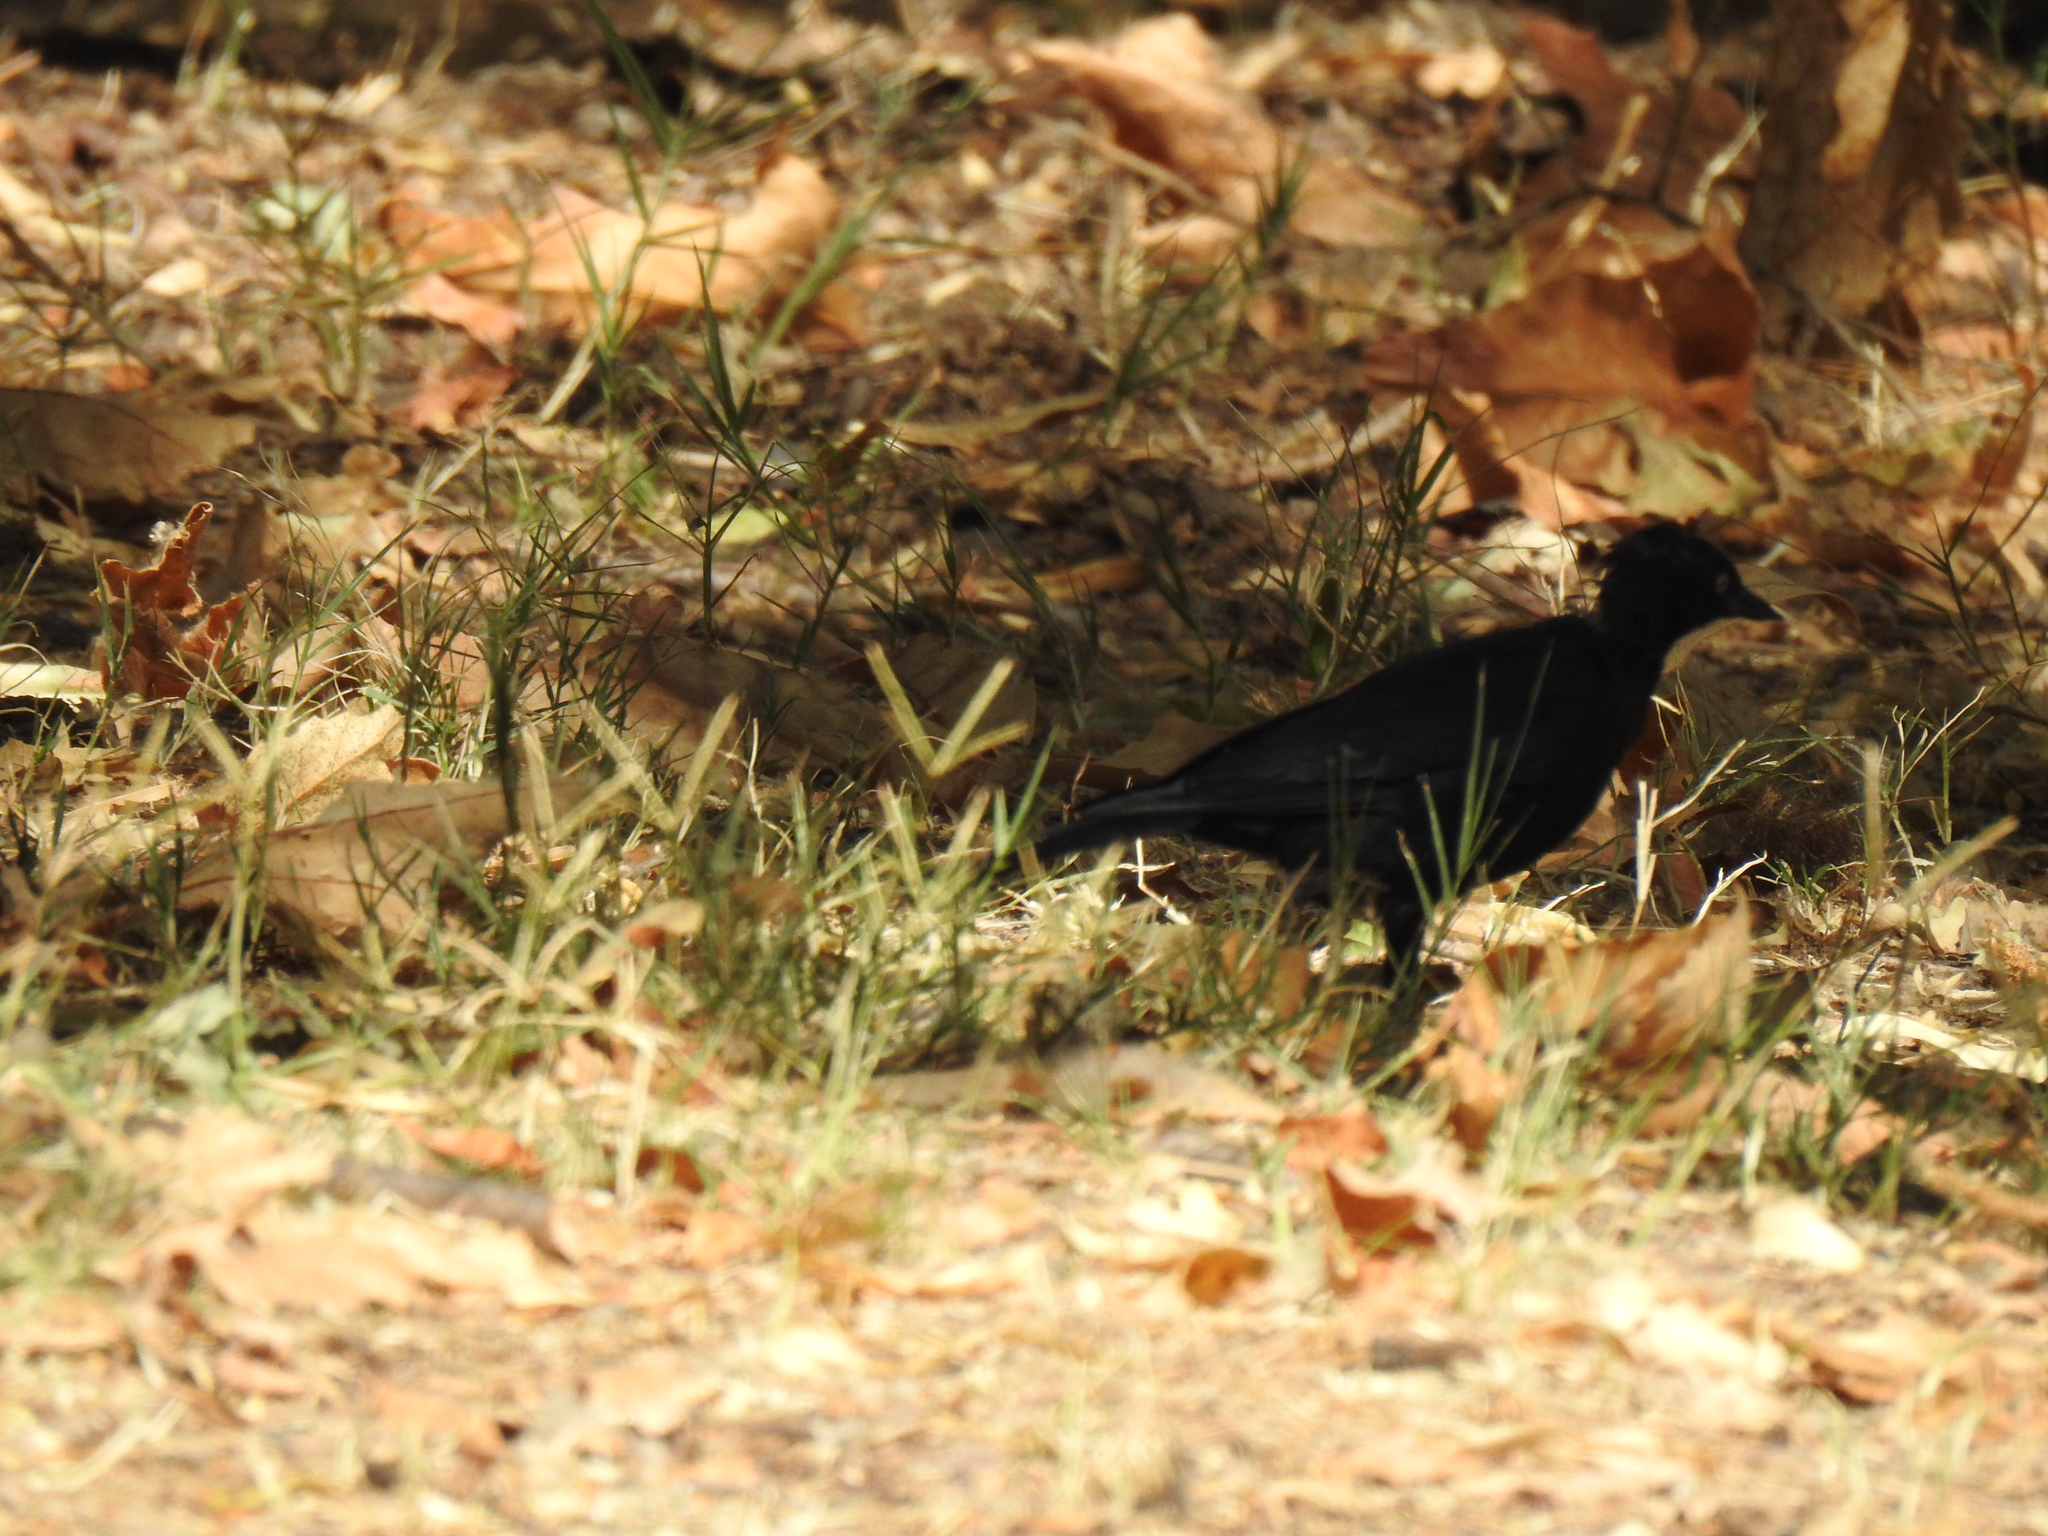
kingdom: Animalia
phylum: Chordata
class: Aves
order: Passeriformes
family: Icteridae
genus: Euphagus
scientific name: Euphagus cyanocephalus
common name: Brewer's blackbird
